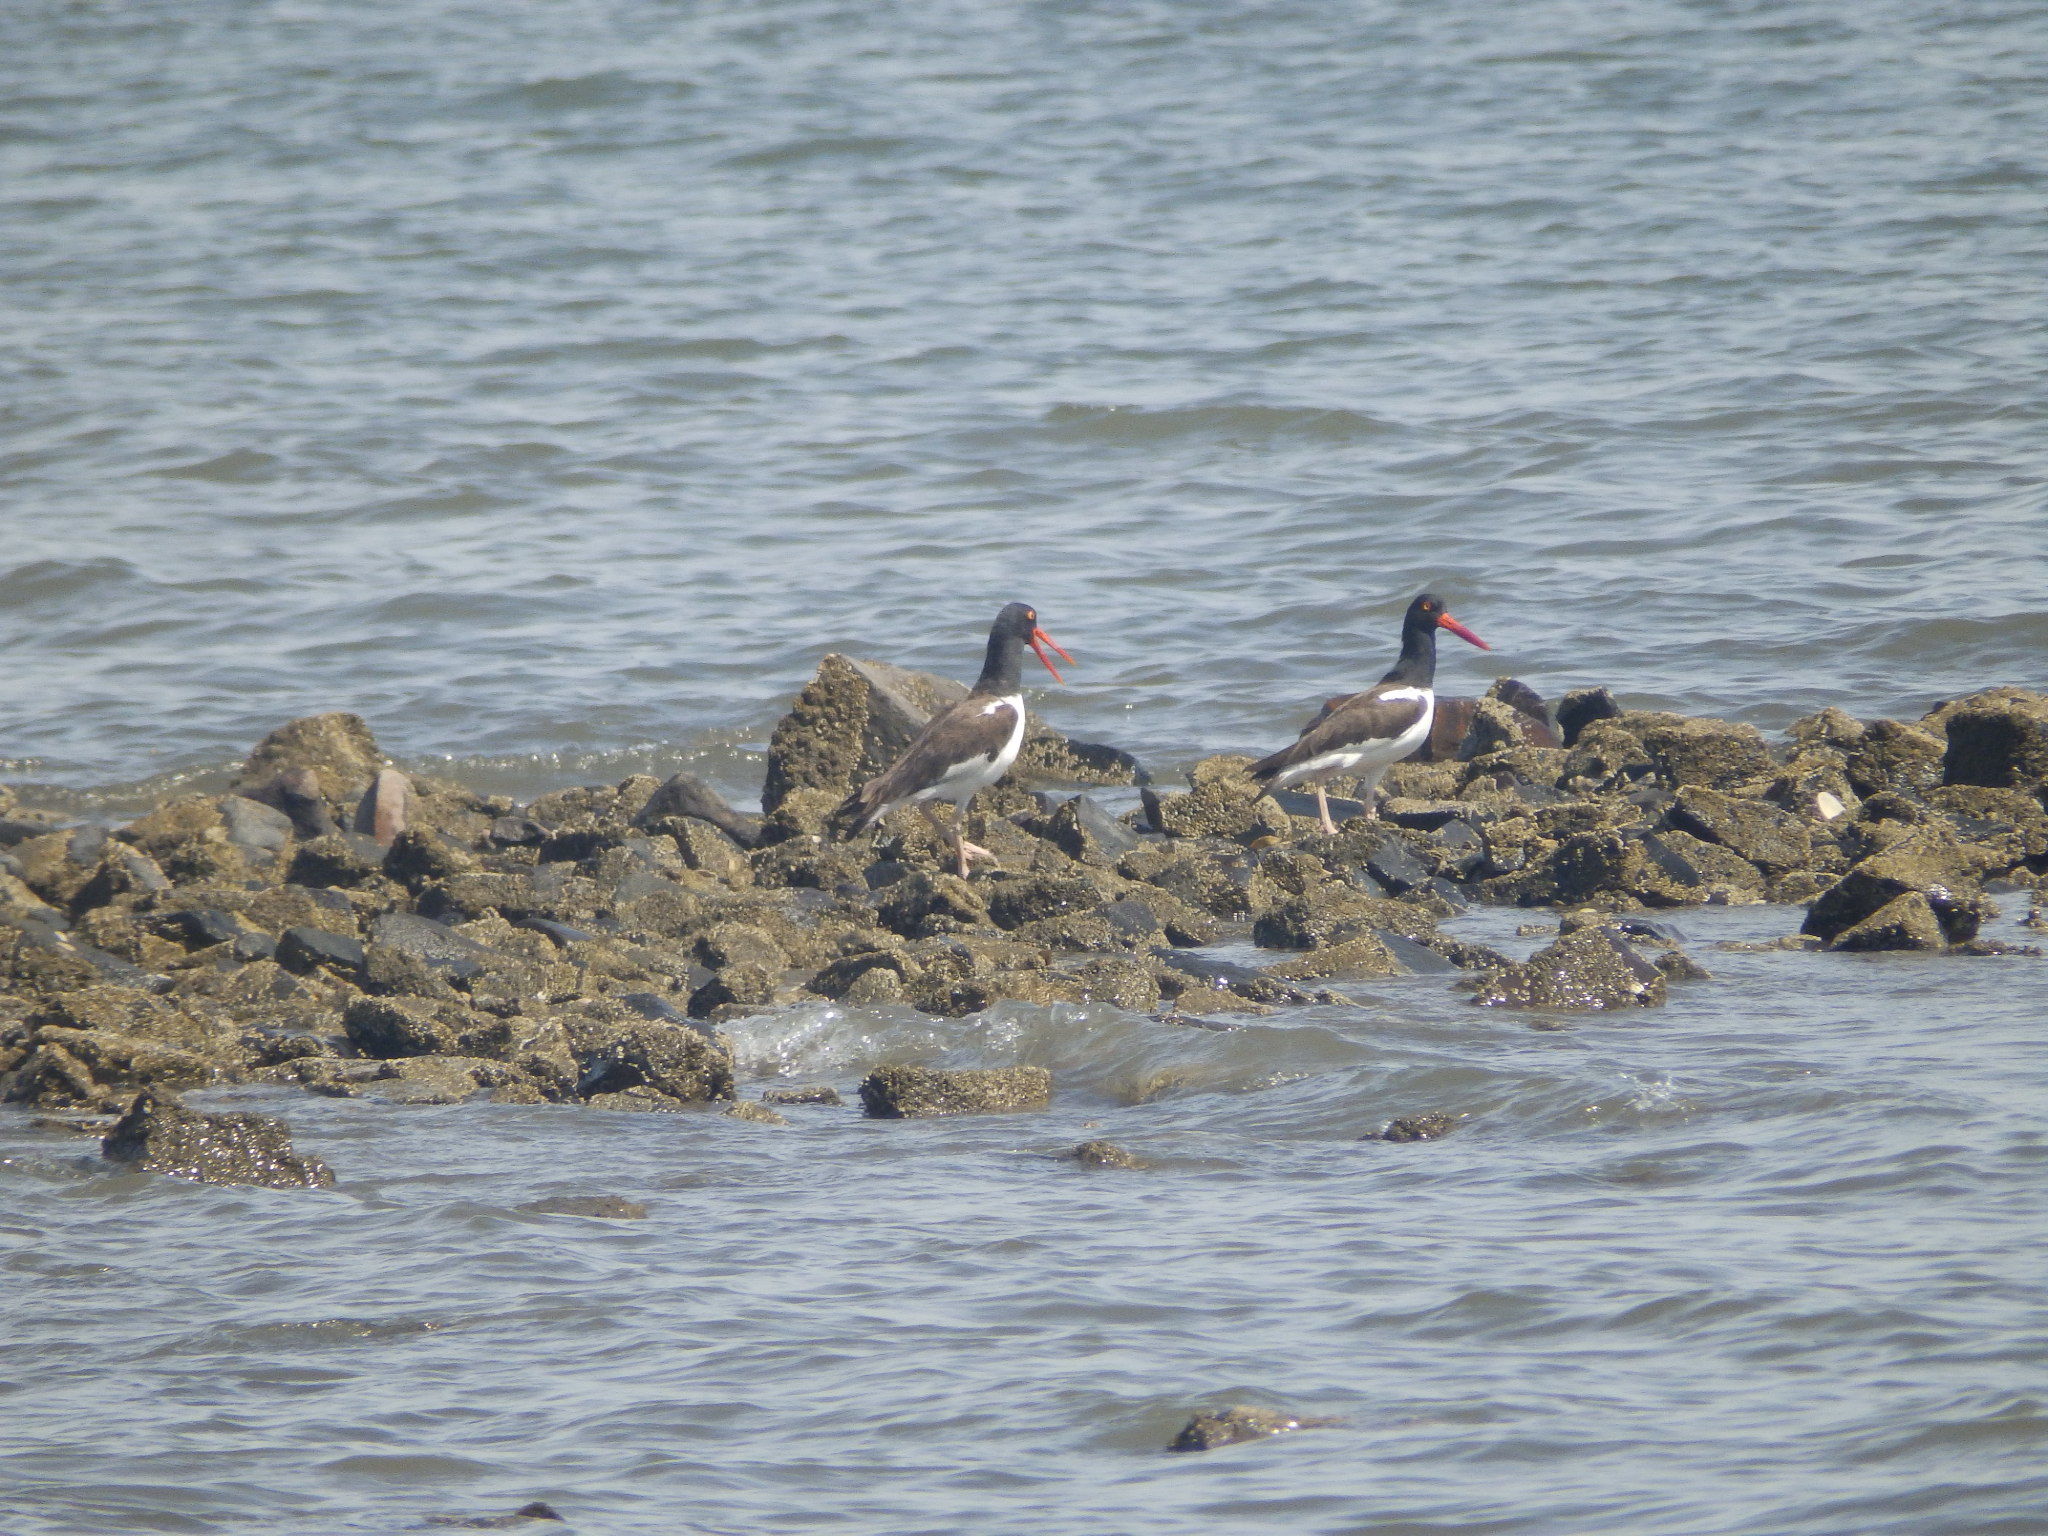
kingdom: Animalia
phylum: Chordata
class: Aves
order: Charadriiformes
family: Haematopodidae
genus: Haematopus
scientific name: Haematopus palliatus
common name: American oystercatcher
